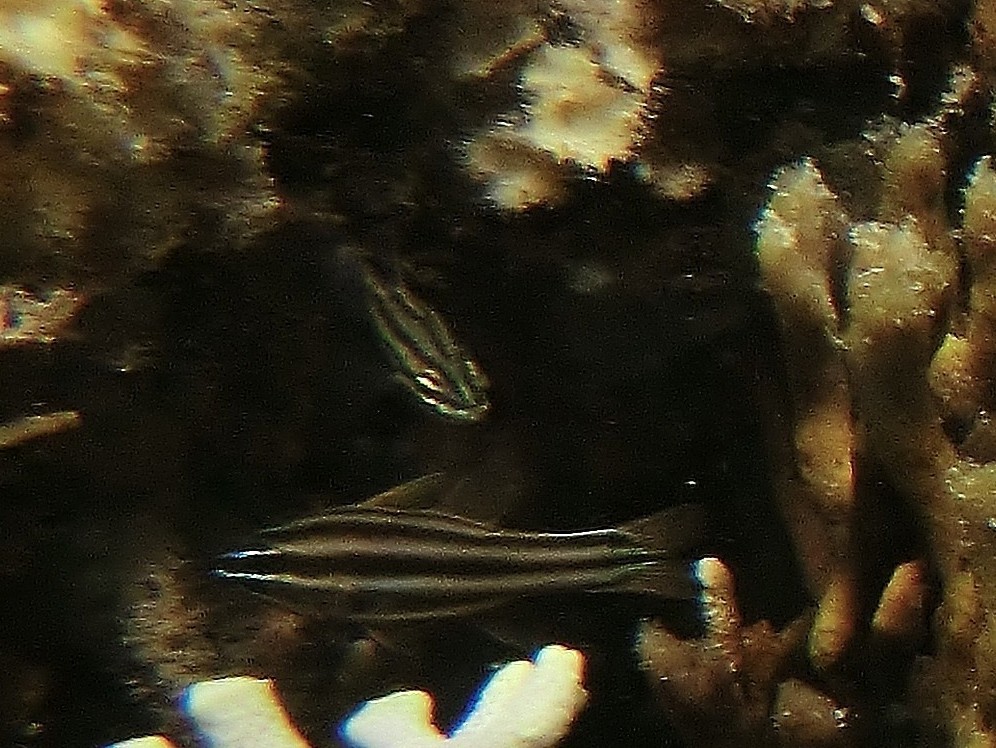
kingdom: Animalia
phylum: Chordata
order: Perciformes
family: Apogonidae
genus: Ostorhinchus
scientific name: Ostorhinchus novemfasciatus
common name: Seven-striped cardinalfish
